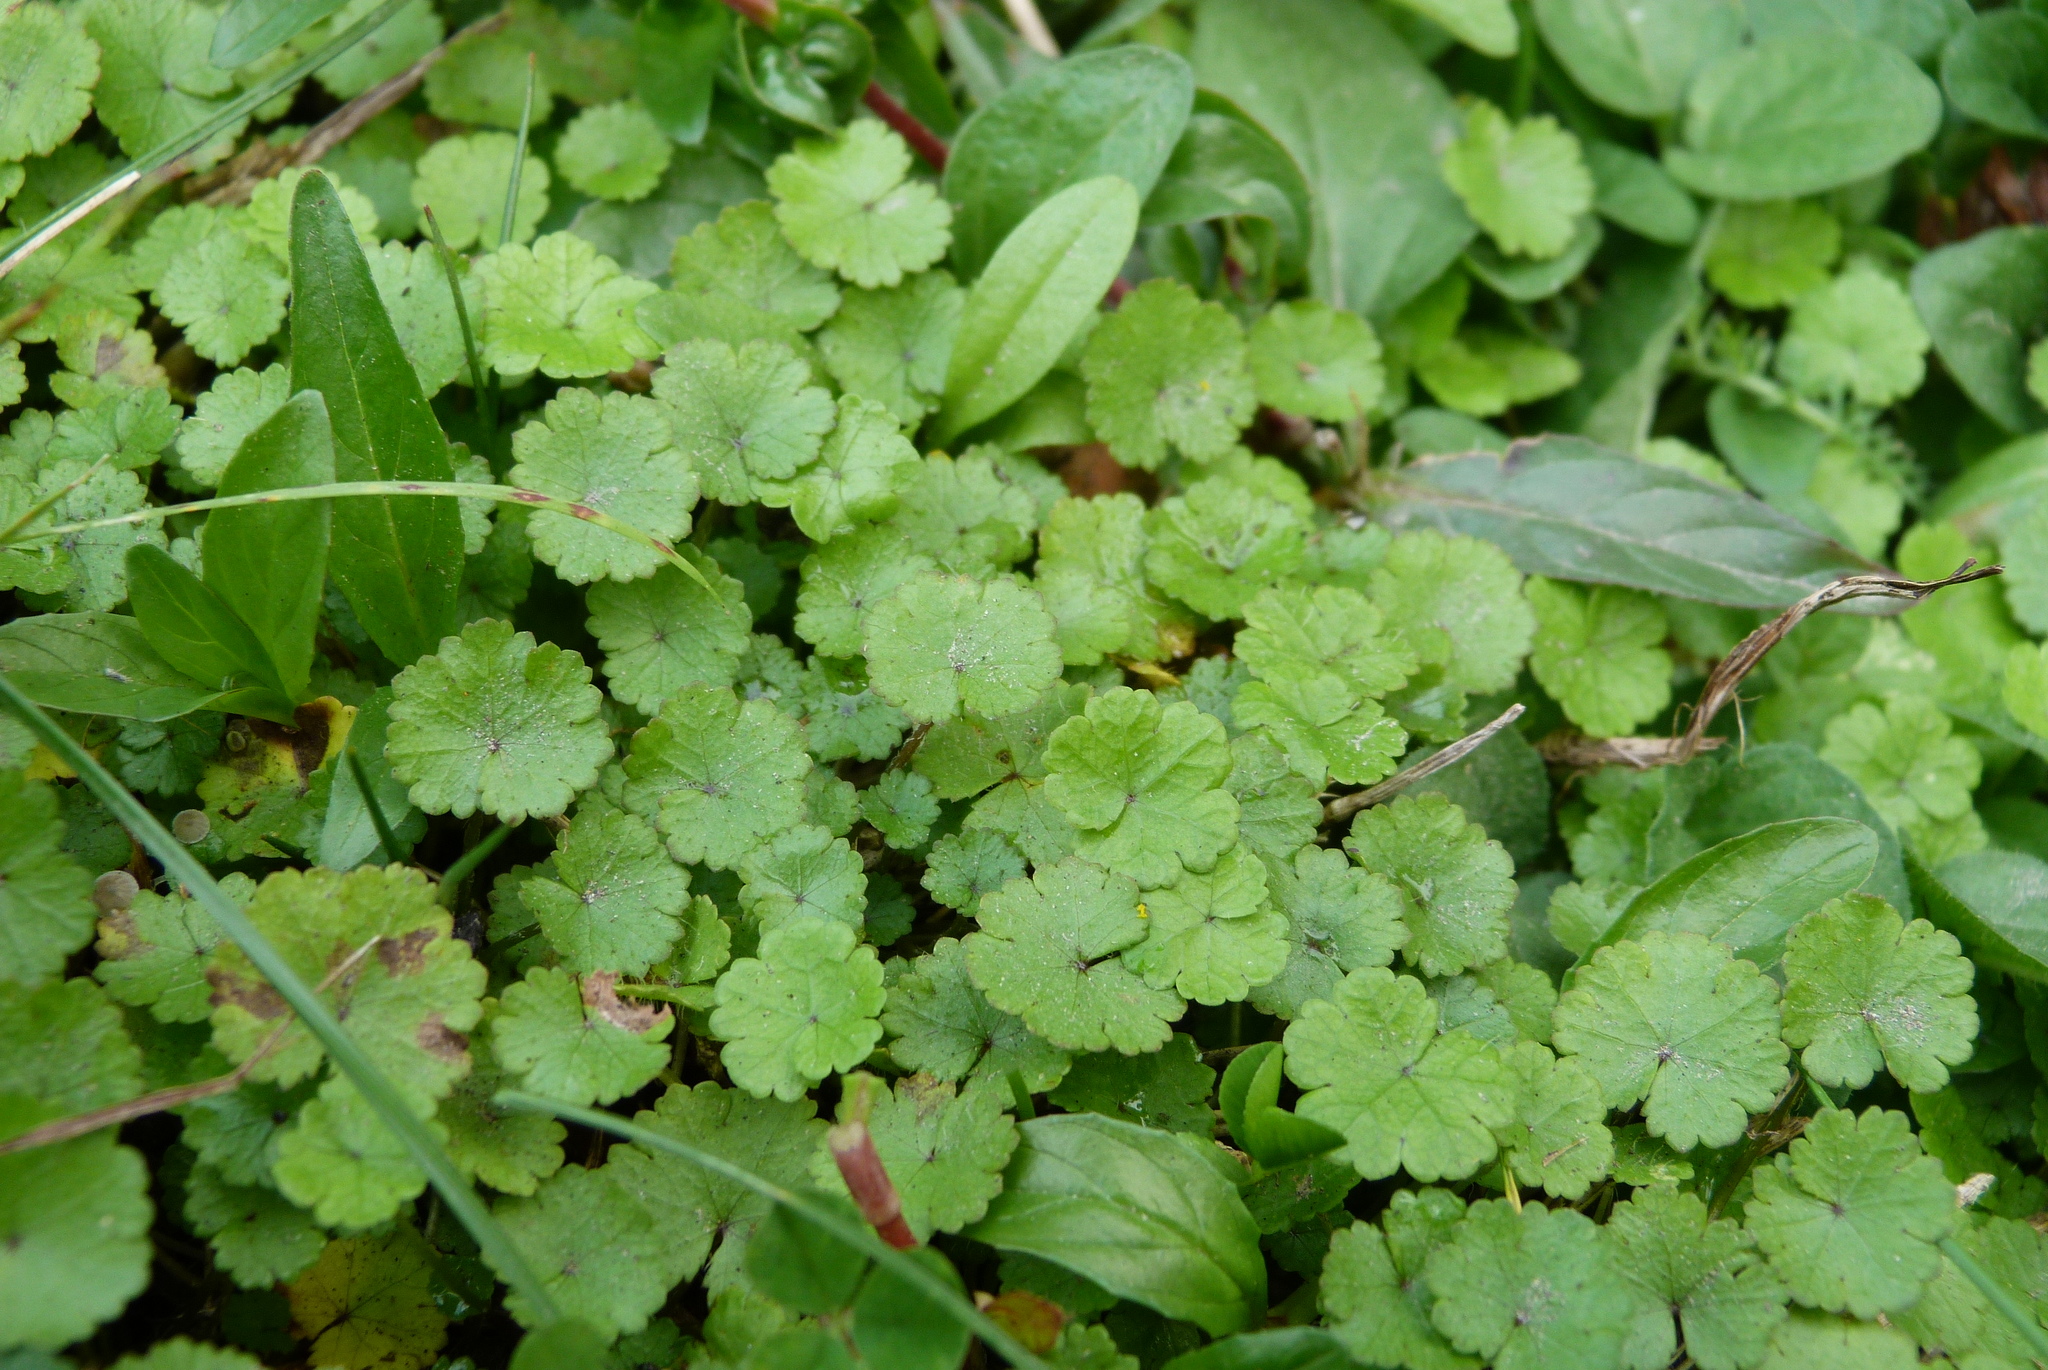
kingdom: Plantae
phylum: Tracheophyta
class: Magnoliopsida
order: Apiales
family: Araliaceae
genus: Hydrocotyle
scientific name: Hydrocotyle microphylla
